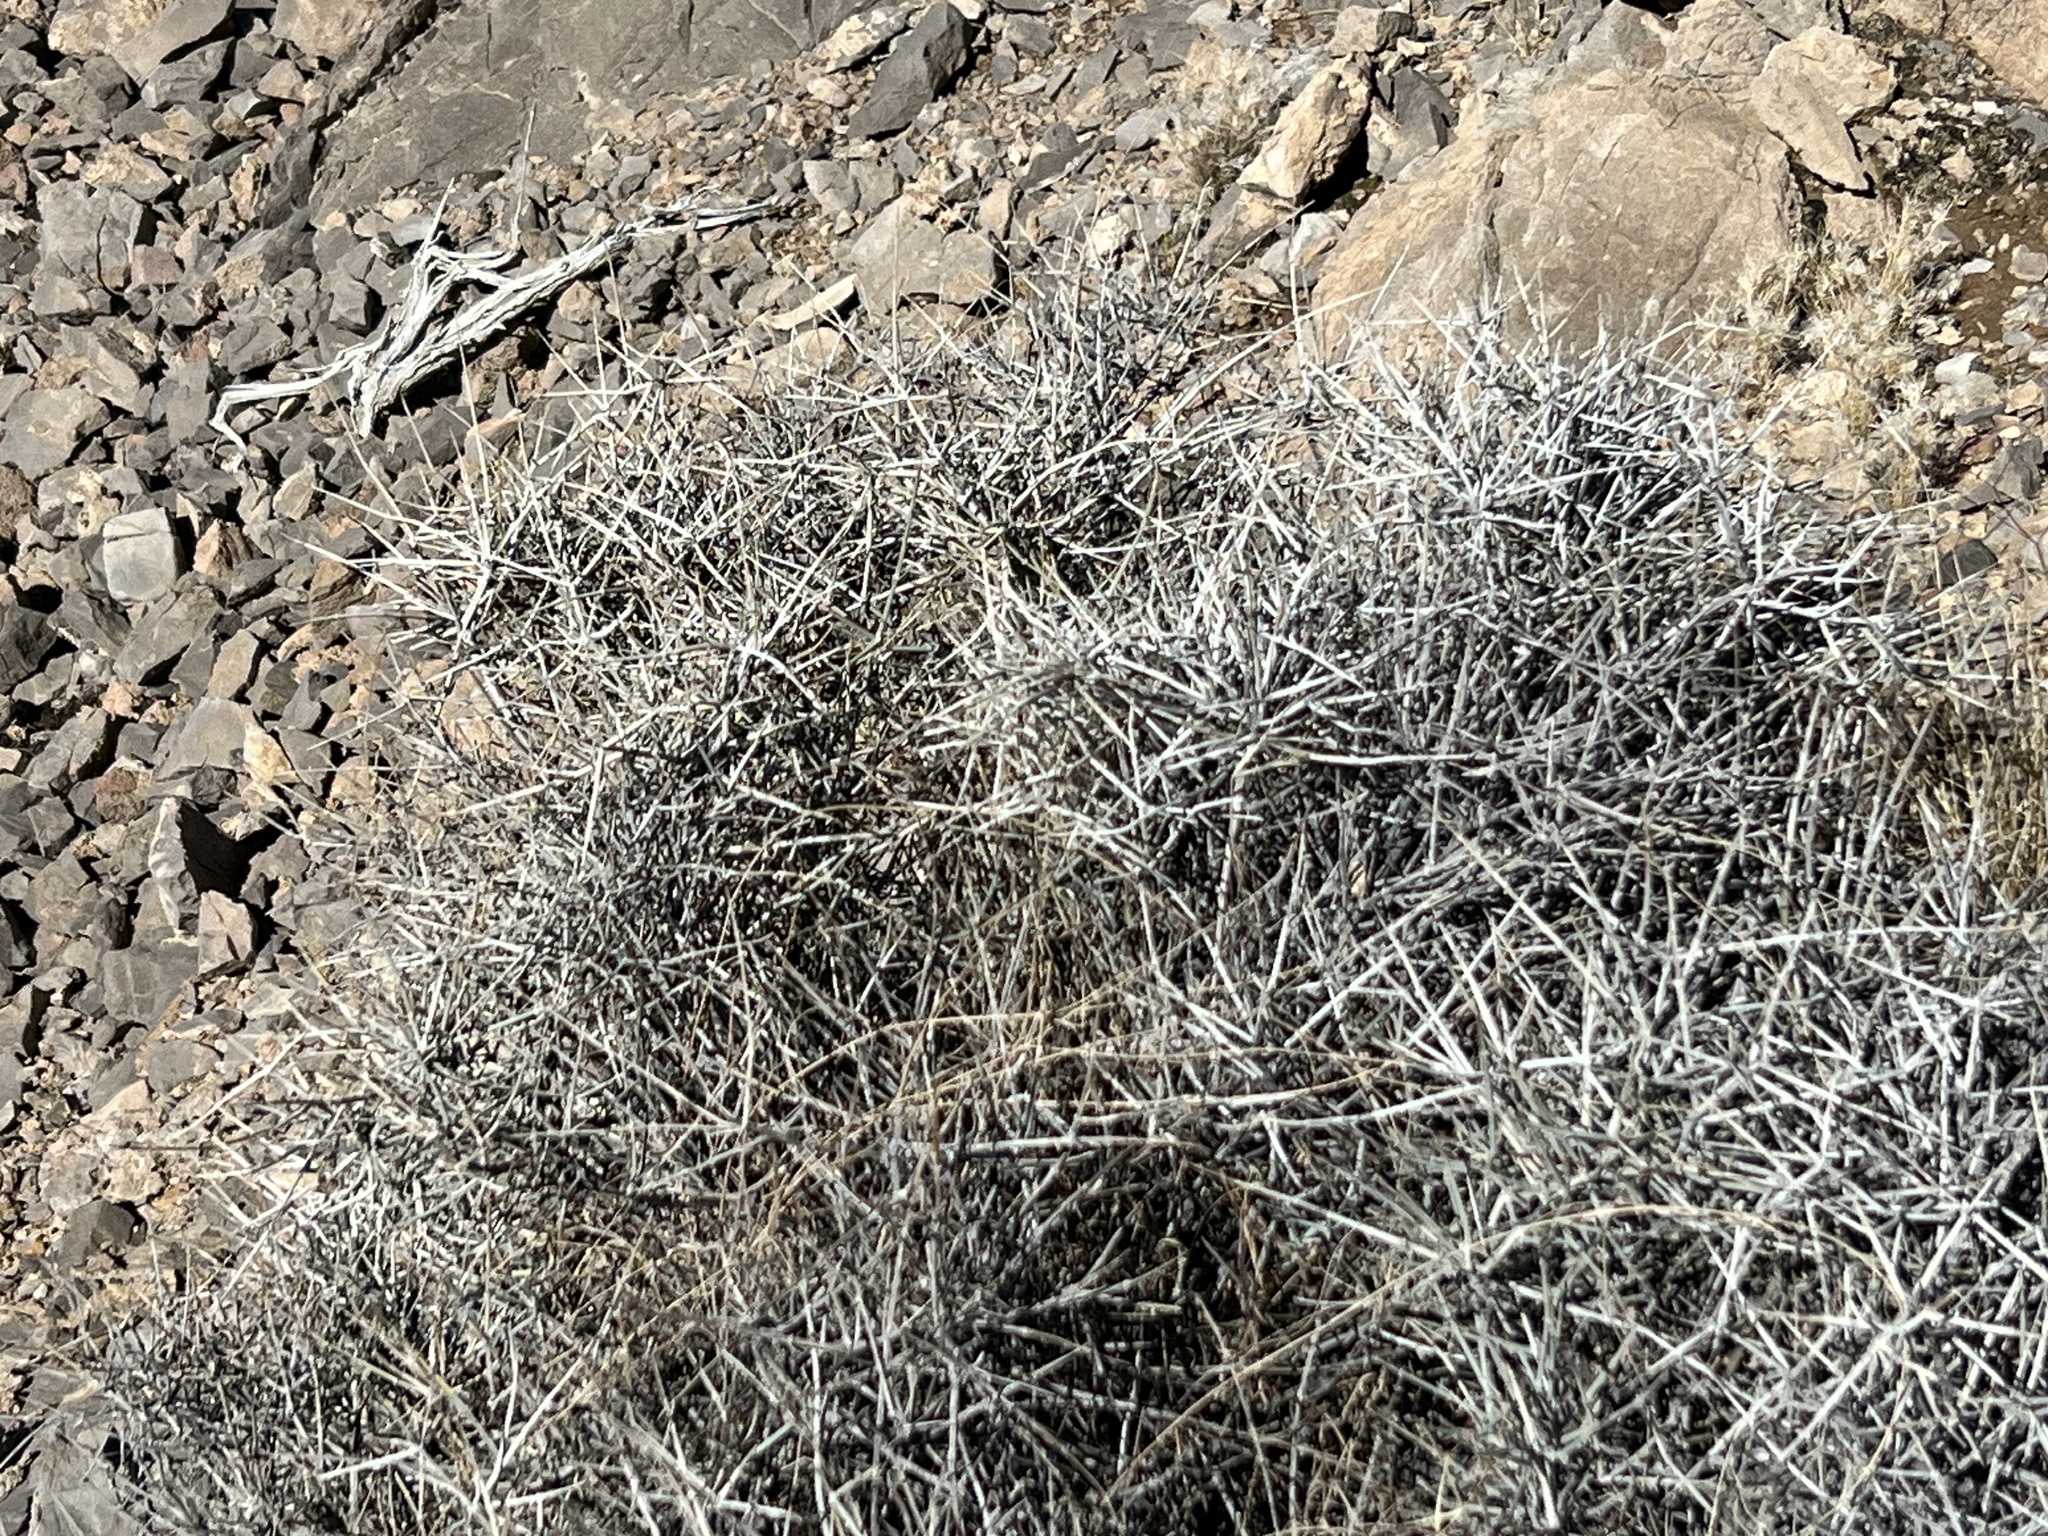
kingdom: Plantae
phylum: Tracheophyta
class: Gnetopsida
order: Ephedrales
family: Ephedraceae
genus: Ephedra
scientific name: Ephedra nevadensis
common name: Gray ephedra
